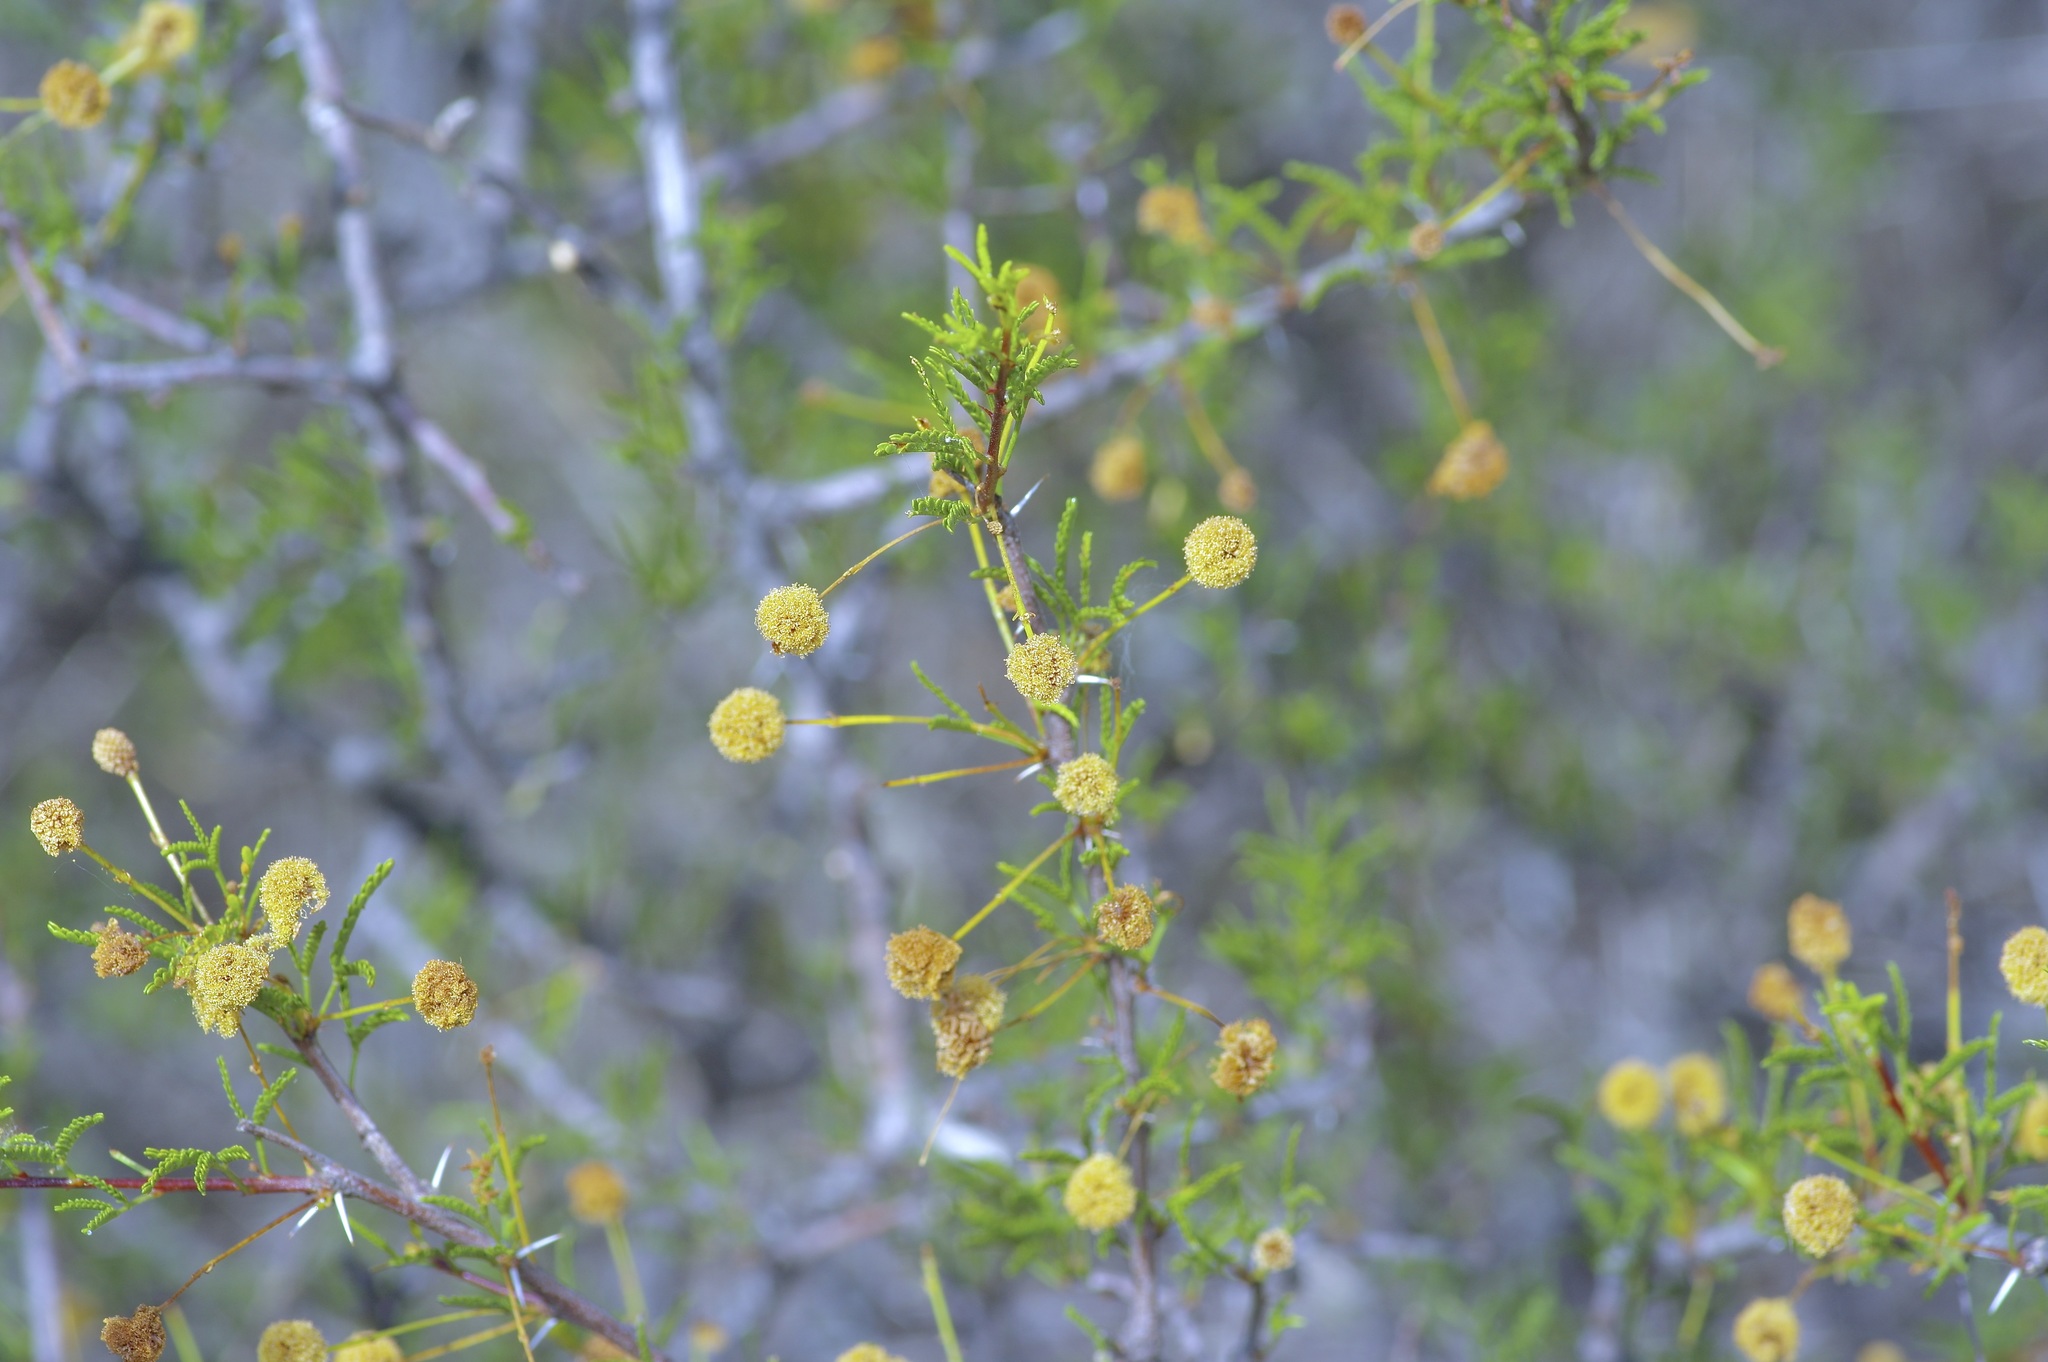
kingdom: Plantae
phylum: Tracheophyta
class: Magnoliopsida
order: Fabales
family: Fabaceae
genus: Vachellia
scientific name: Vachellia vernicosa
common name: Viscid acacia
